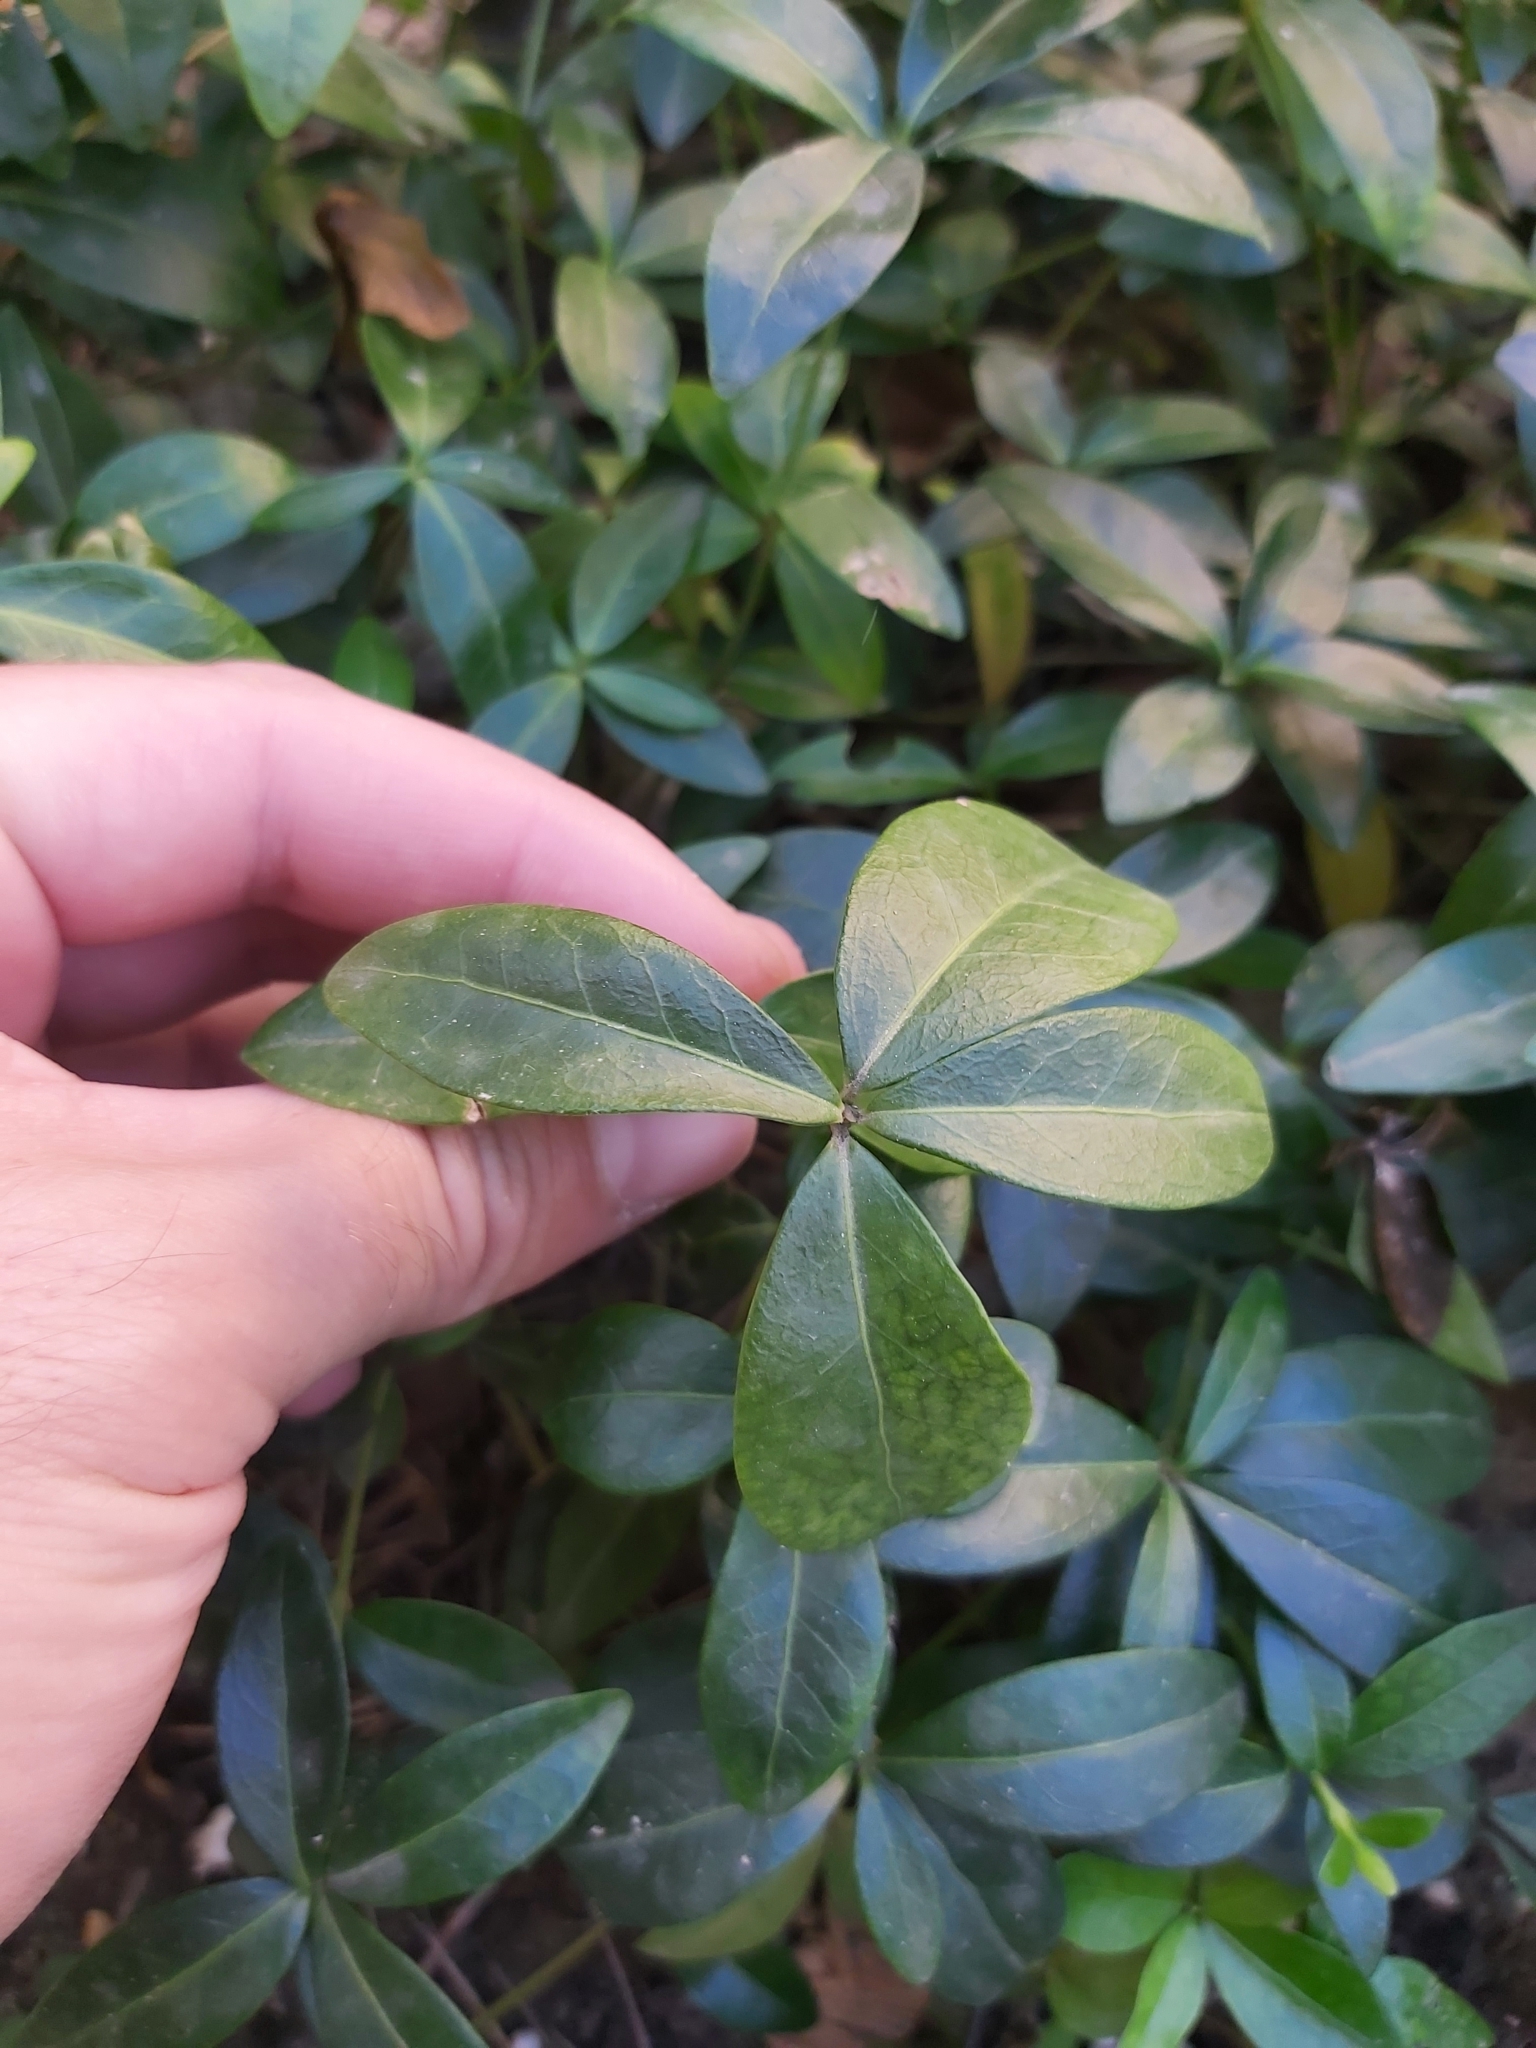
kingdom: Plantae
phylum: Tracheophyta
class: Magnoliopsida
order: Gentianales
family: Apocynaceae
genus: Vinca
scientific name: Vinca minor
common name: Lesser periwinkle
